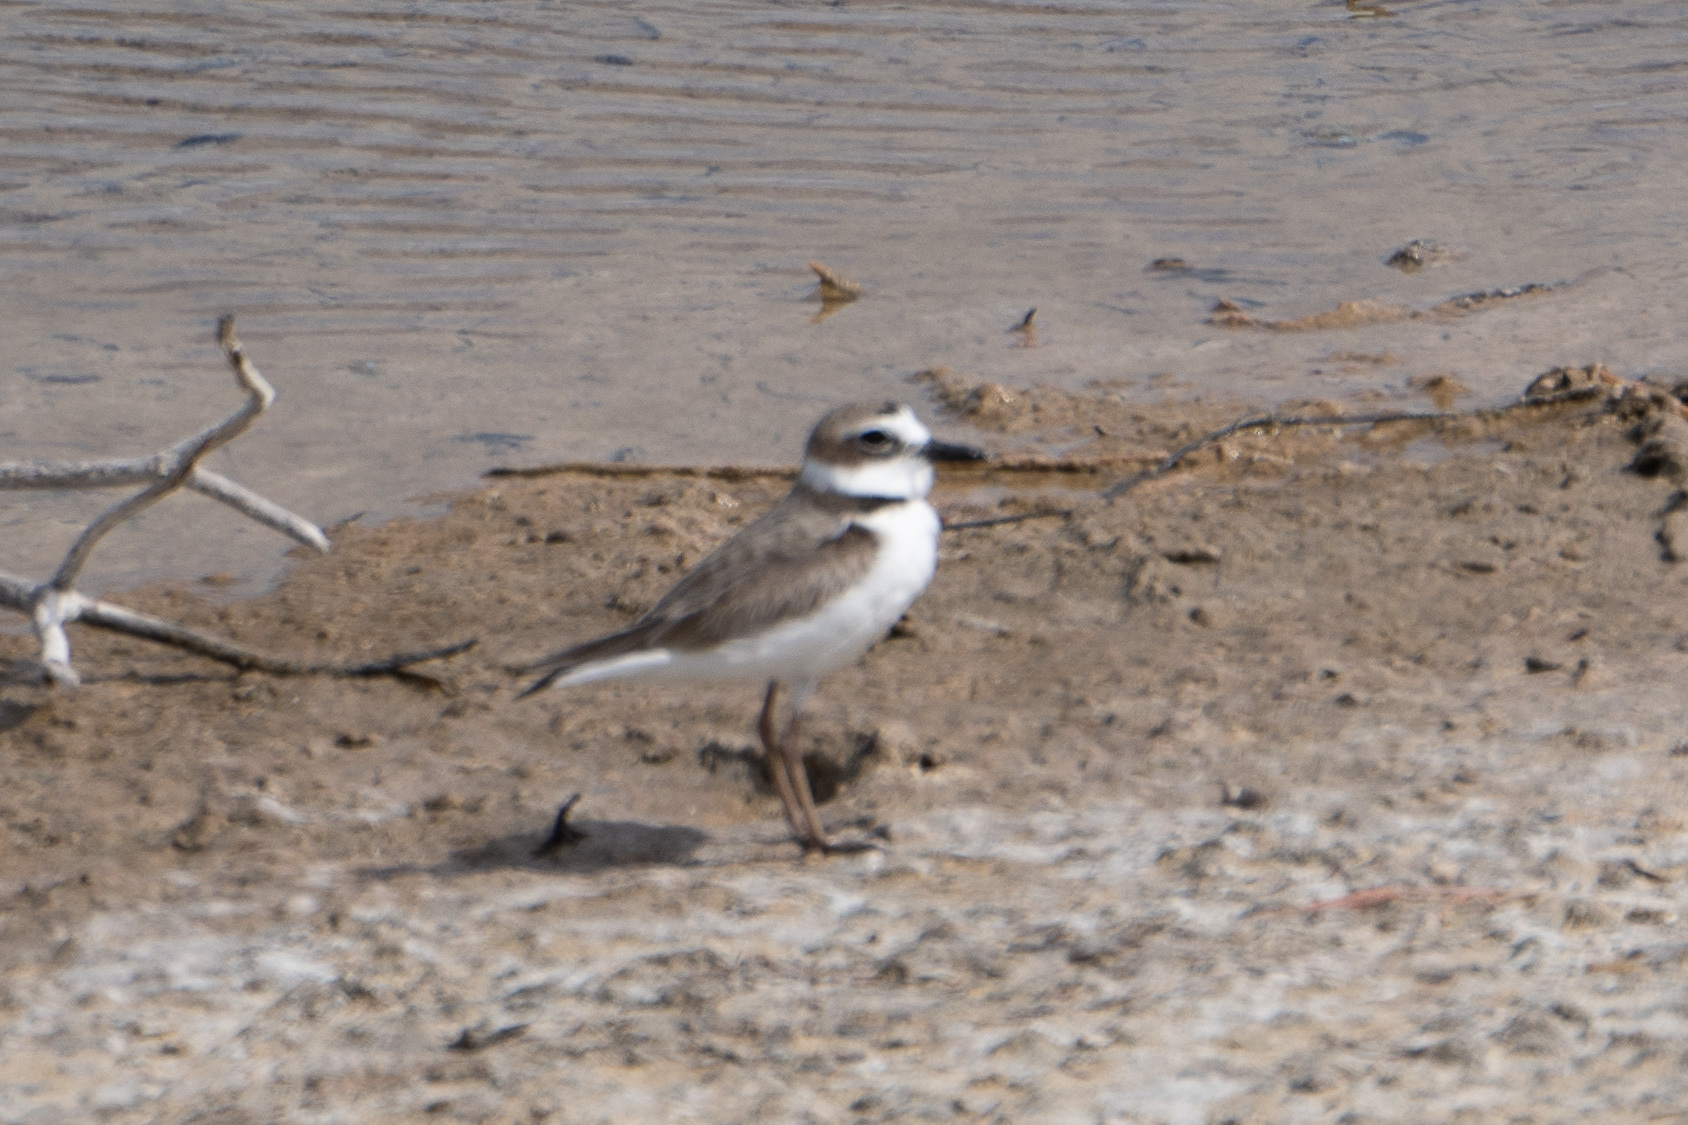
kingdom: Animalia
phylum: Chordata
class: Aves
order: Charadriiformes
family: Charadriidae
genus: Anarhynchus
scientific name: Anarhynchus
